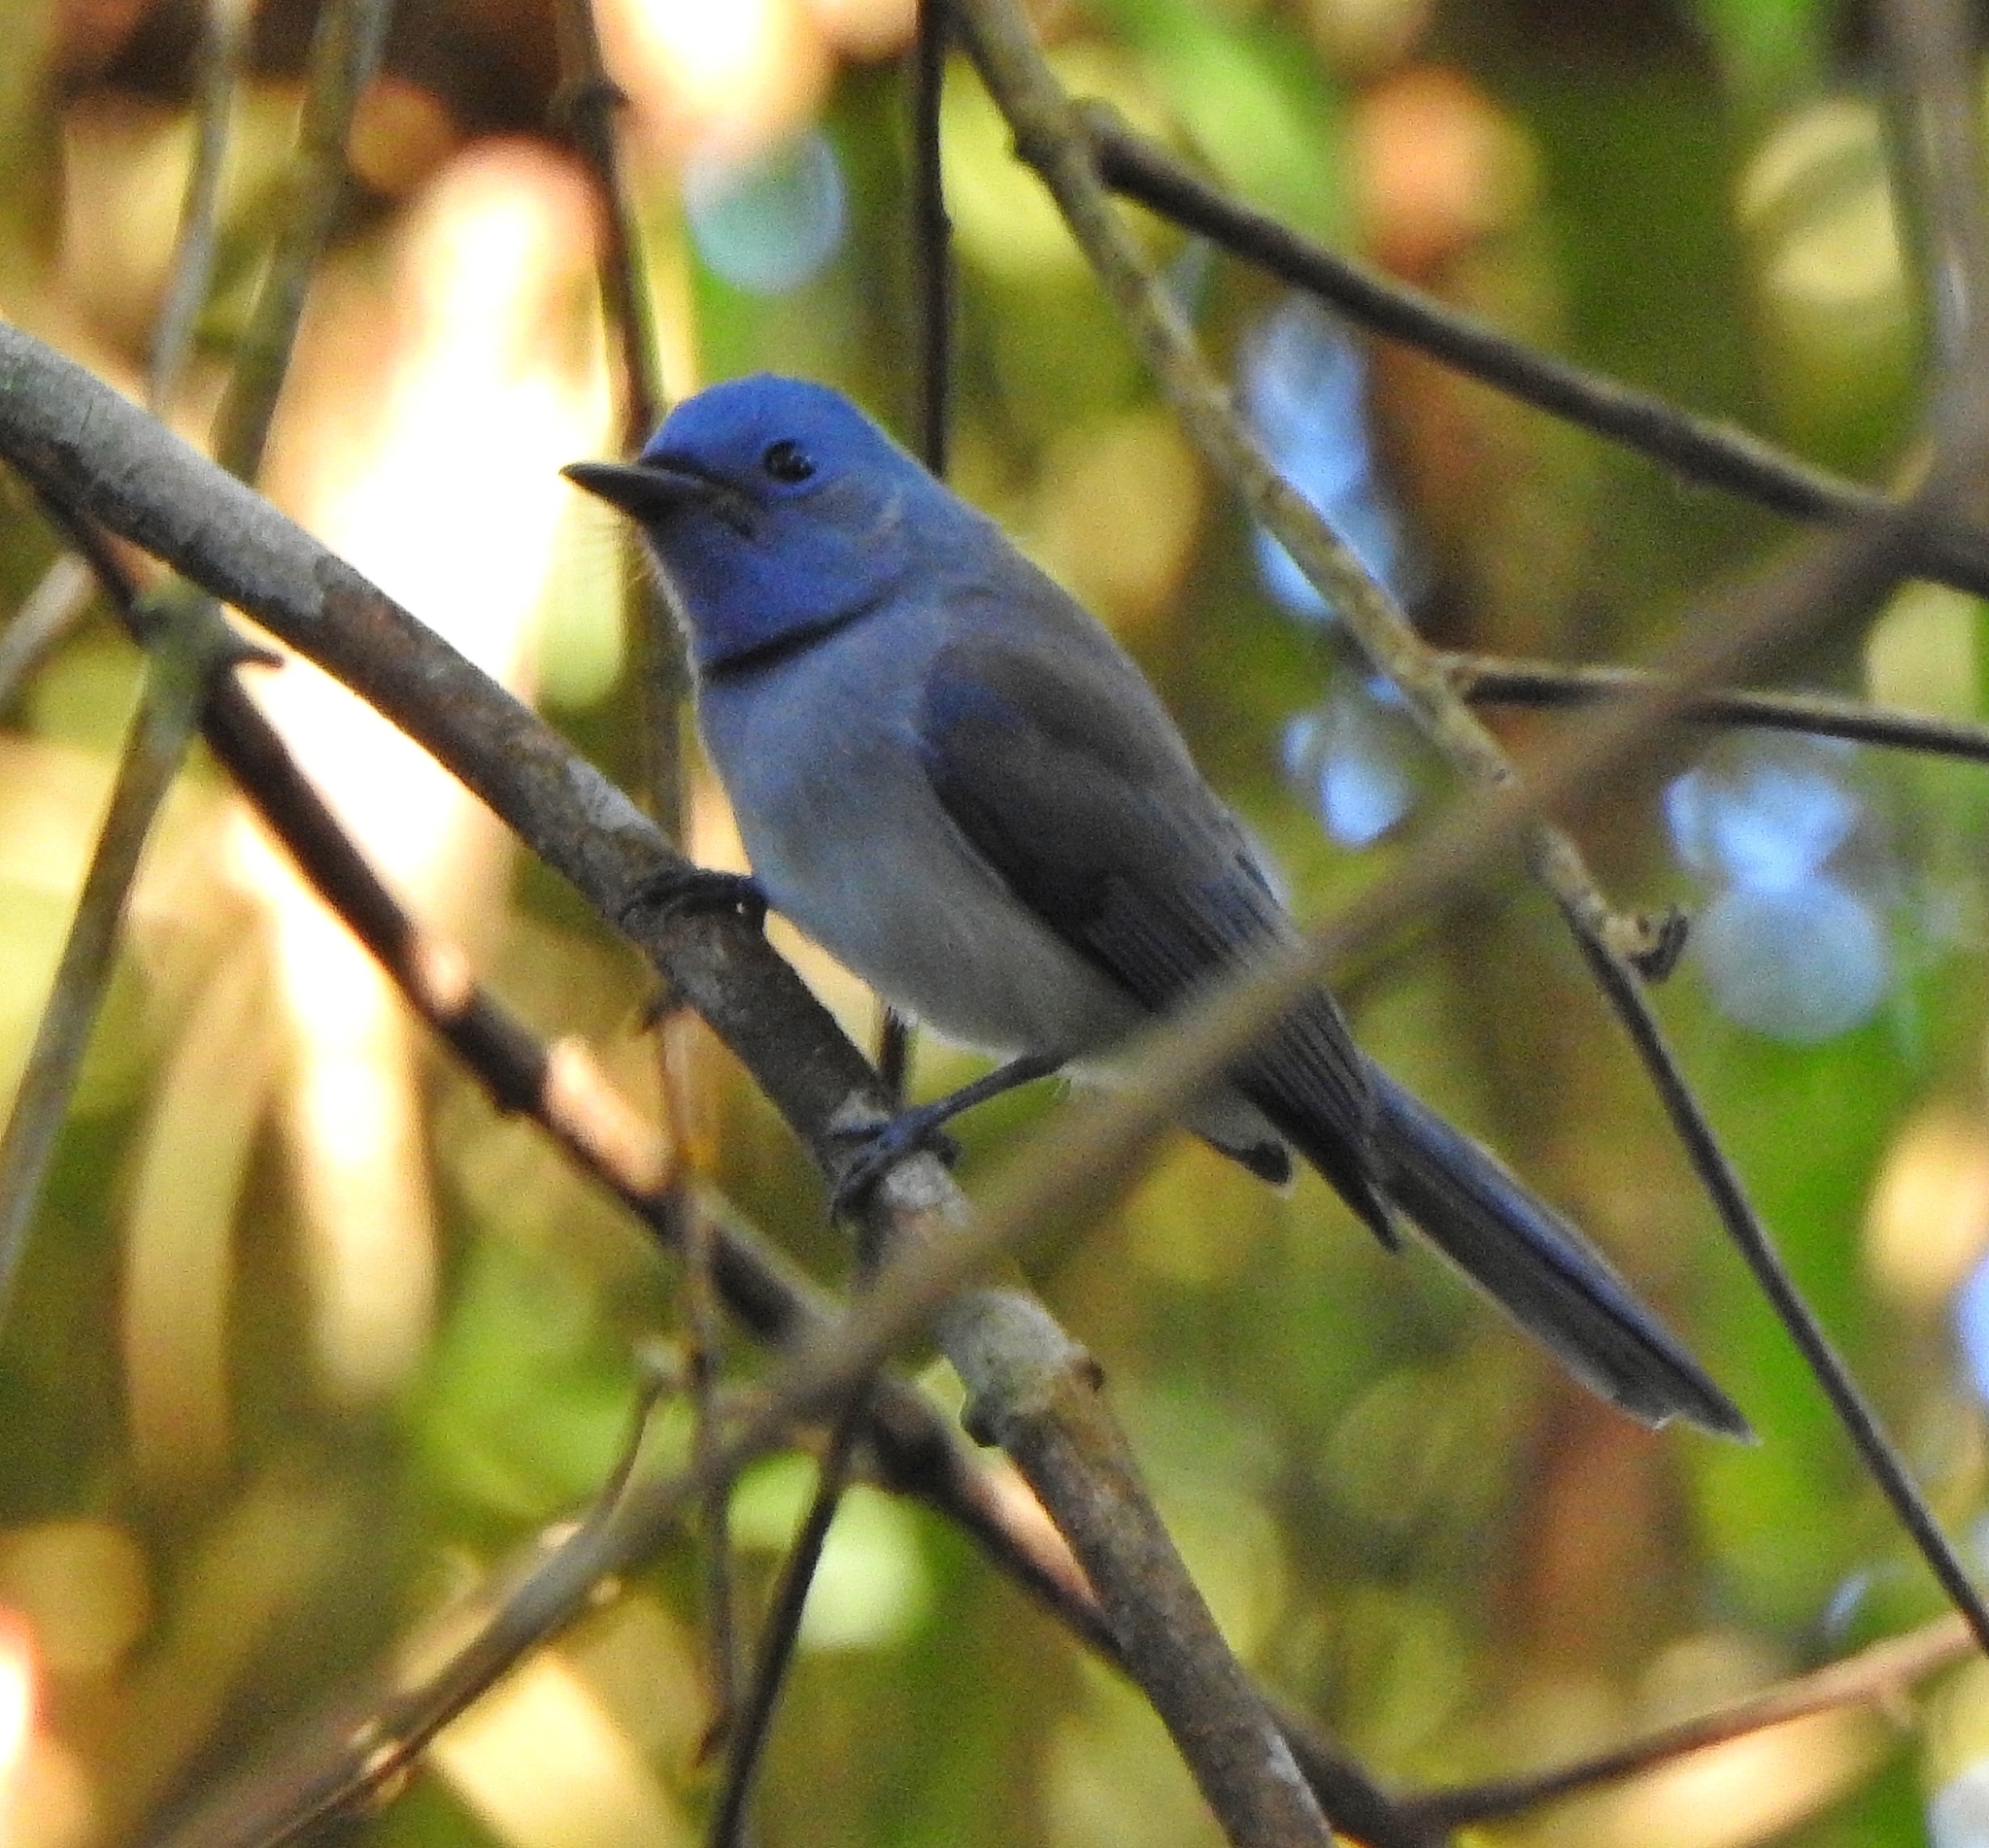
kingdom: Animalia
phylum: Chordata
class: Aves
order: Passeriformes
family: Monarchidae
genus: Hypothymis
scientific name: Hypothymis azurea
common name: Black-naped monarch
